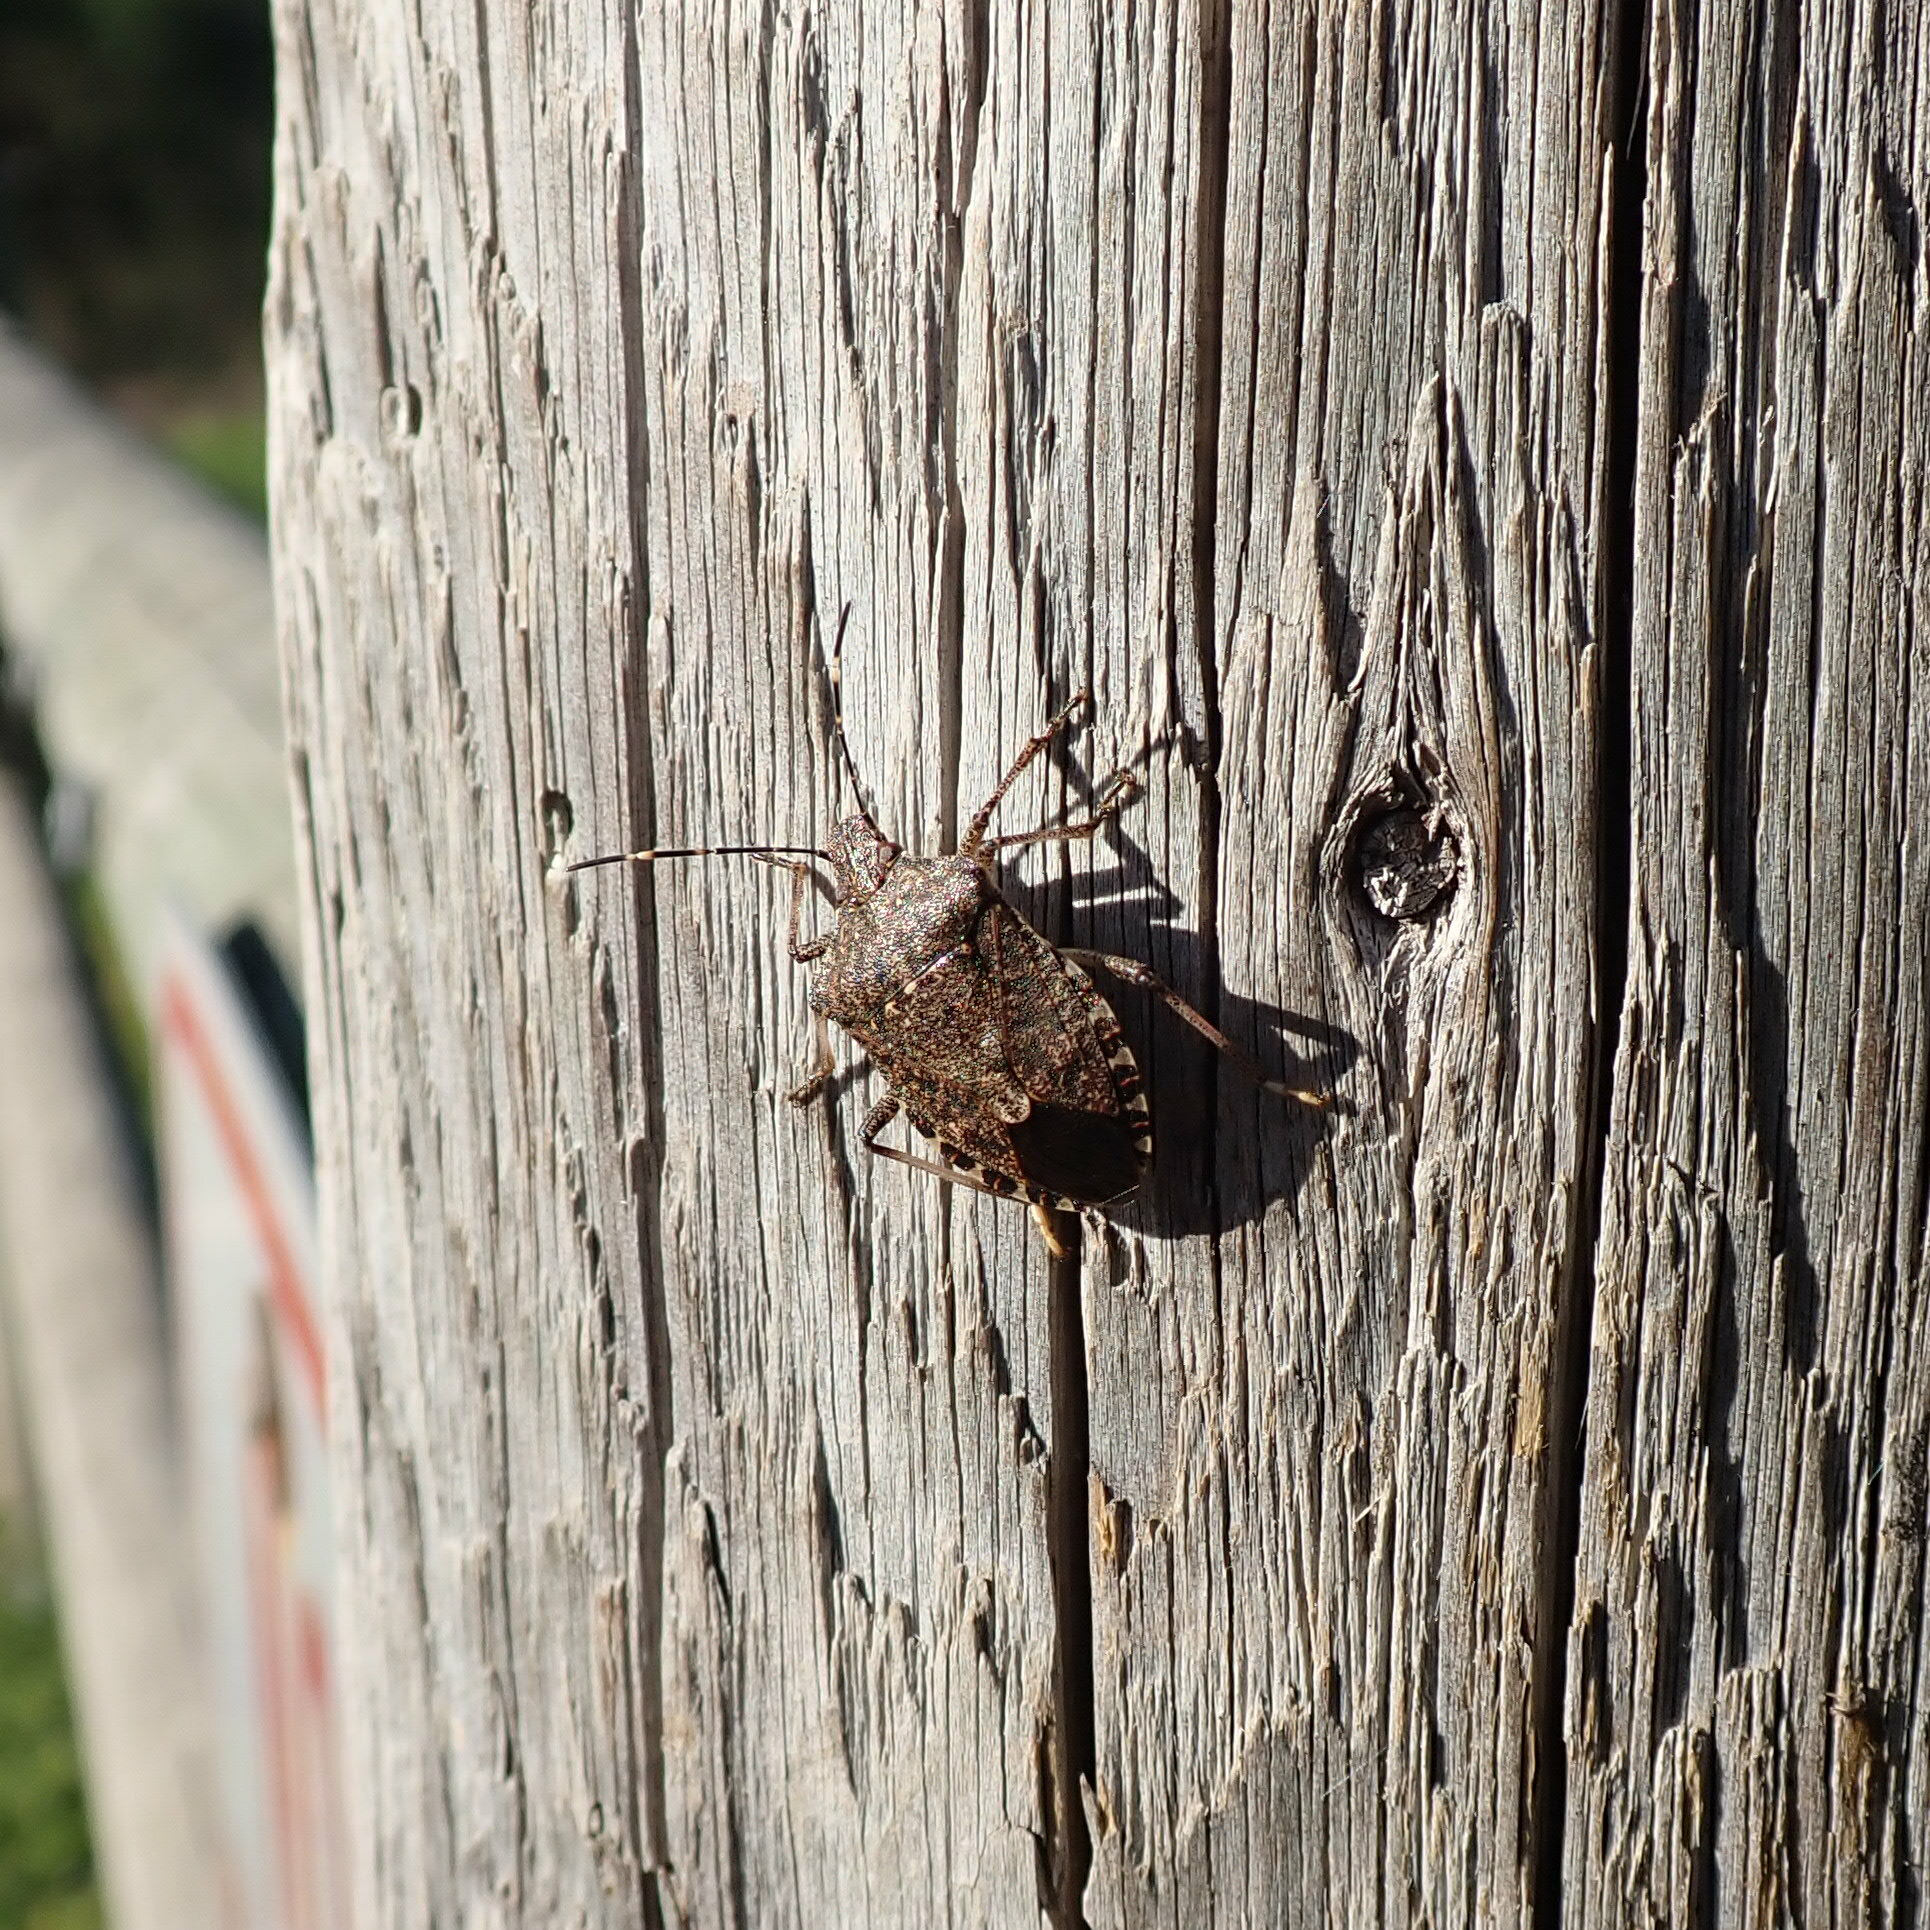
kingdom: Animalia
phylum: Arthropoda
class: Insecta
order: Hemiptera
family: Pentatomidae
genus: Halyomorpha
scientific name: Halyomorpha halys
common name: Brown marmorated stink bug
